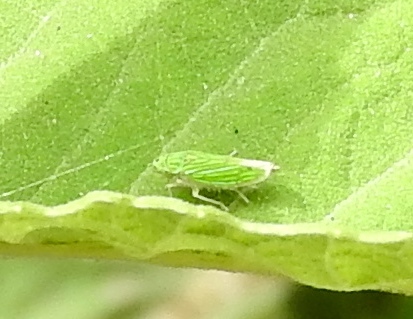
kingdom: Animalia
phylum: Arthropoda
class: Insecta
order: Hemiptera
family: Cicadellidae
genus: Graphocephala
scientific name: Graphocephala cythura
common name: Leafhopper
